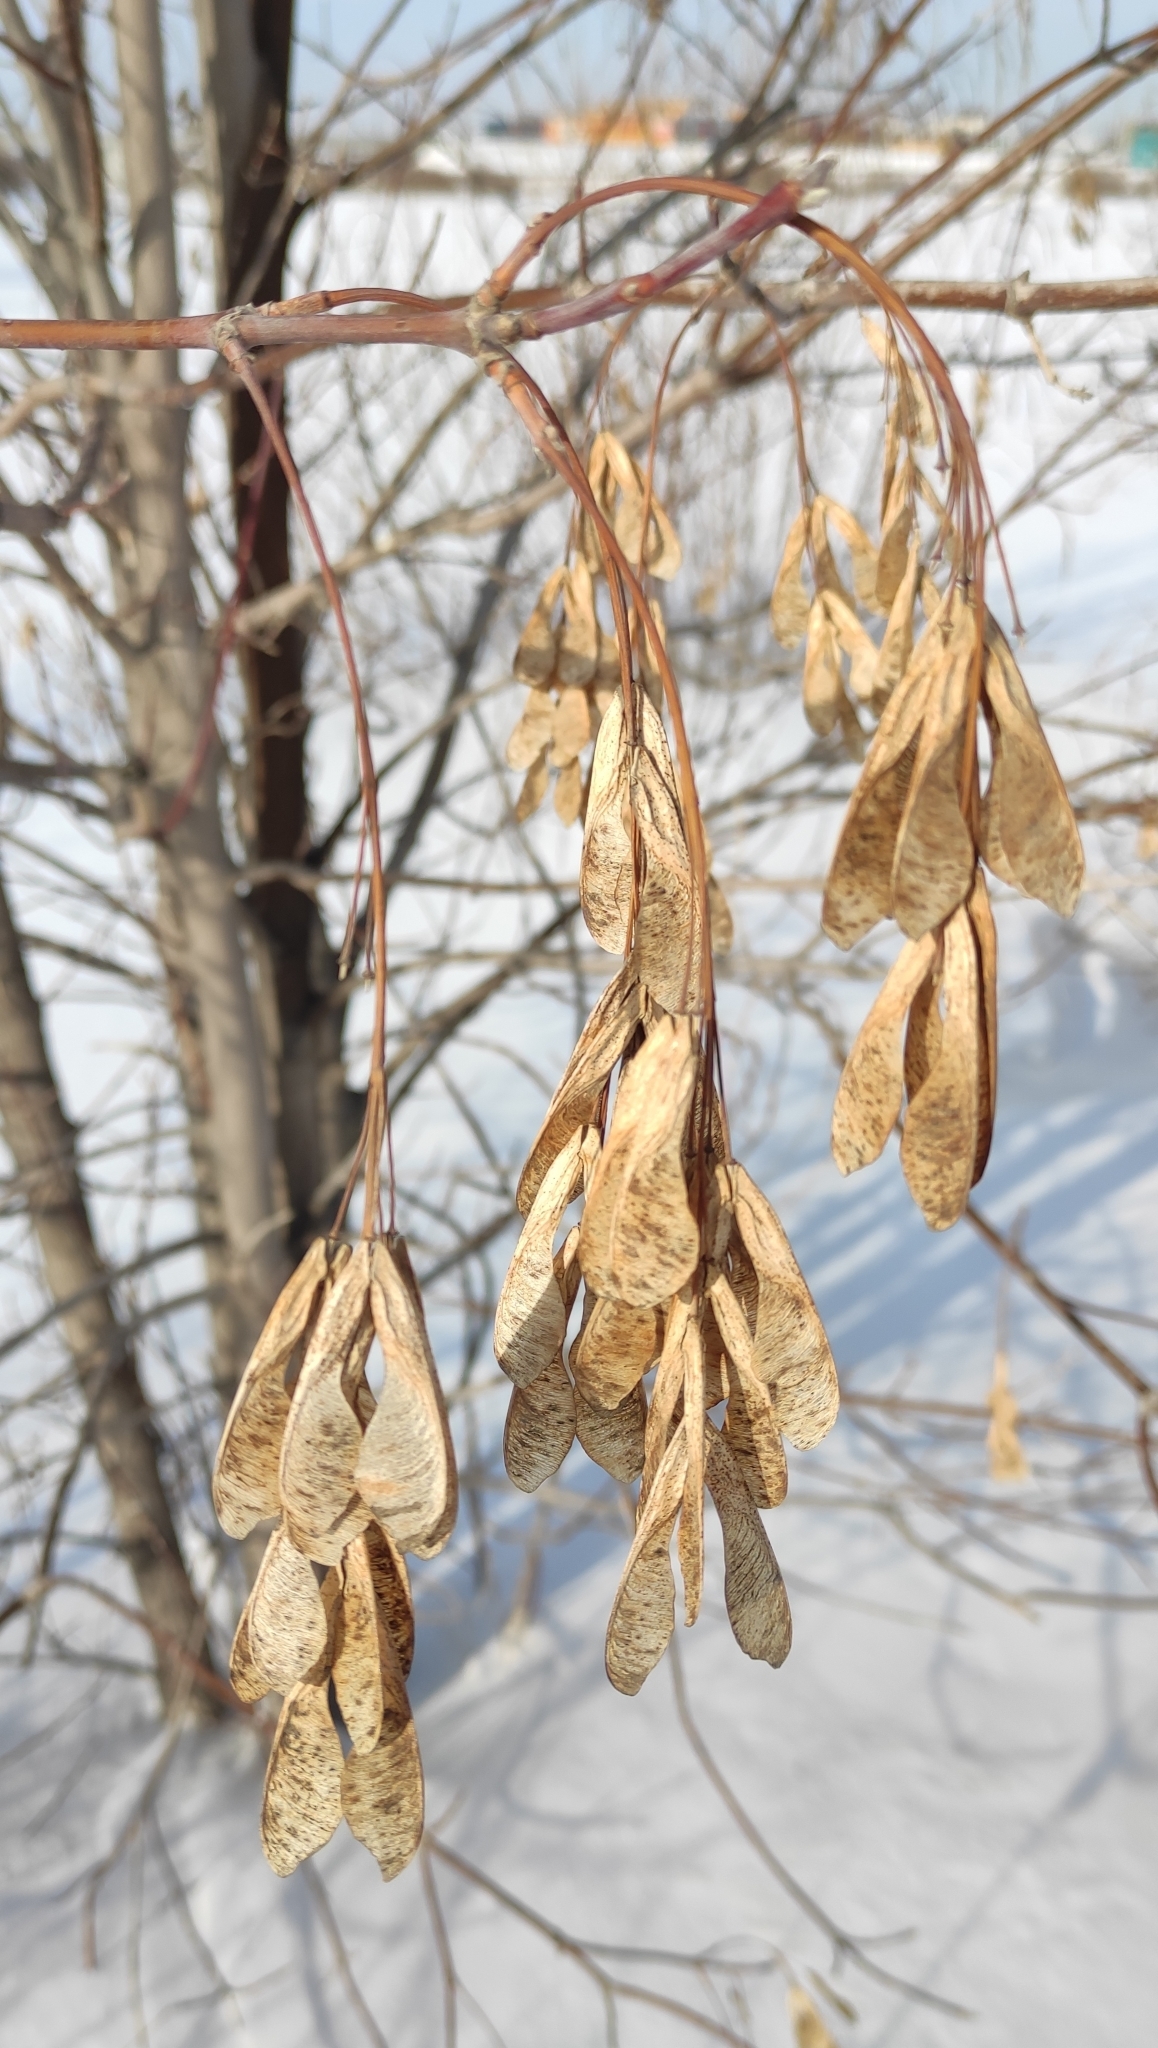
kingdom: Plantae
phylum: Tracheophyta
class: Magnoliopsida
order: Sapindales
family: Sapindaceae
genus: Acer
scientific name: Acer negundo
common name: Ashleaf maple
